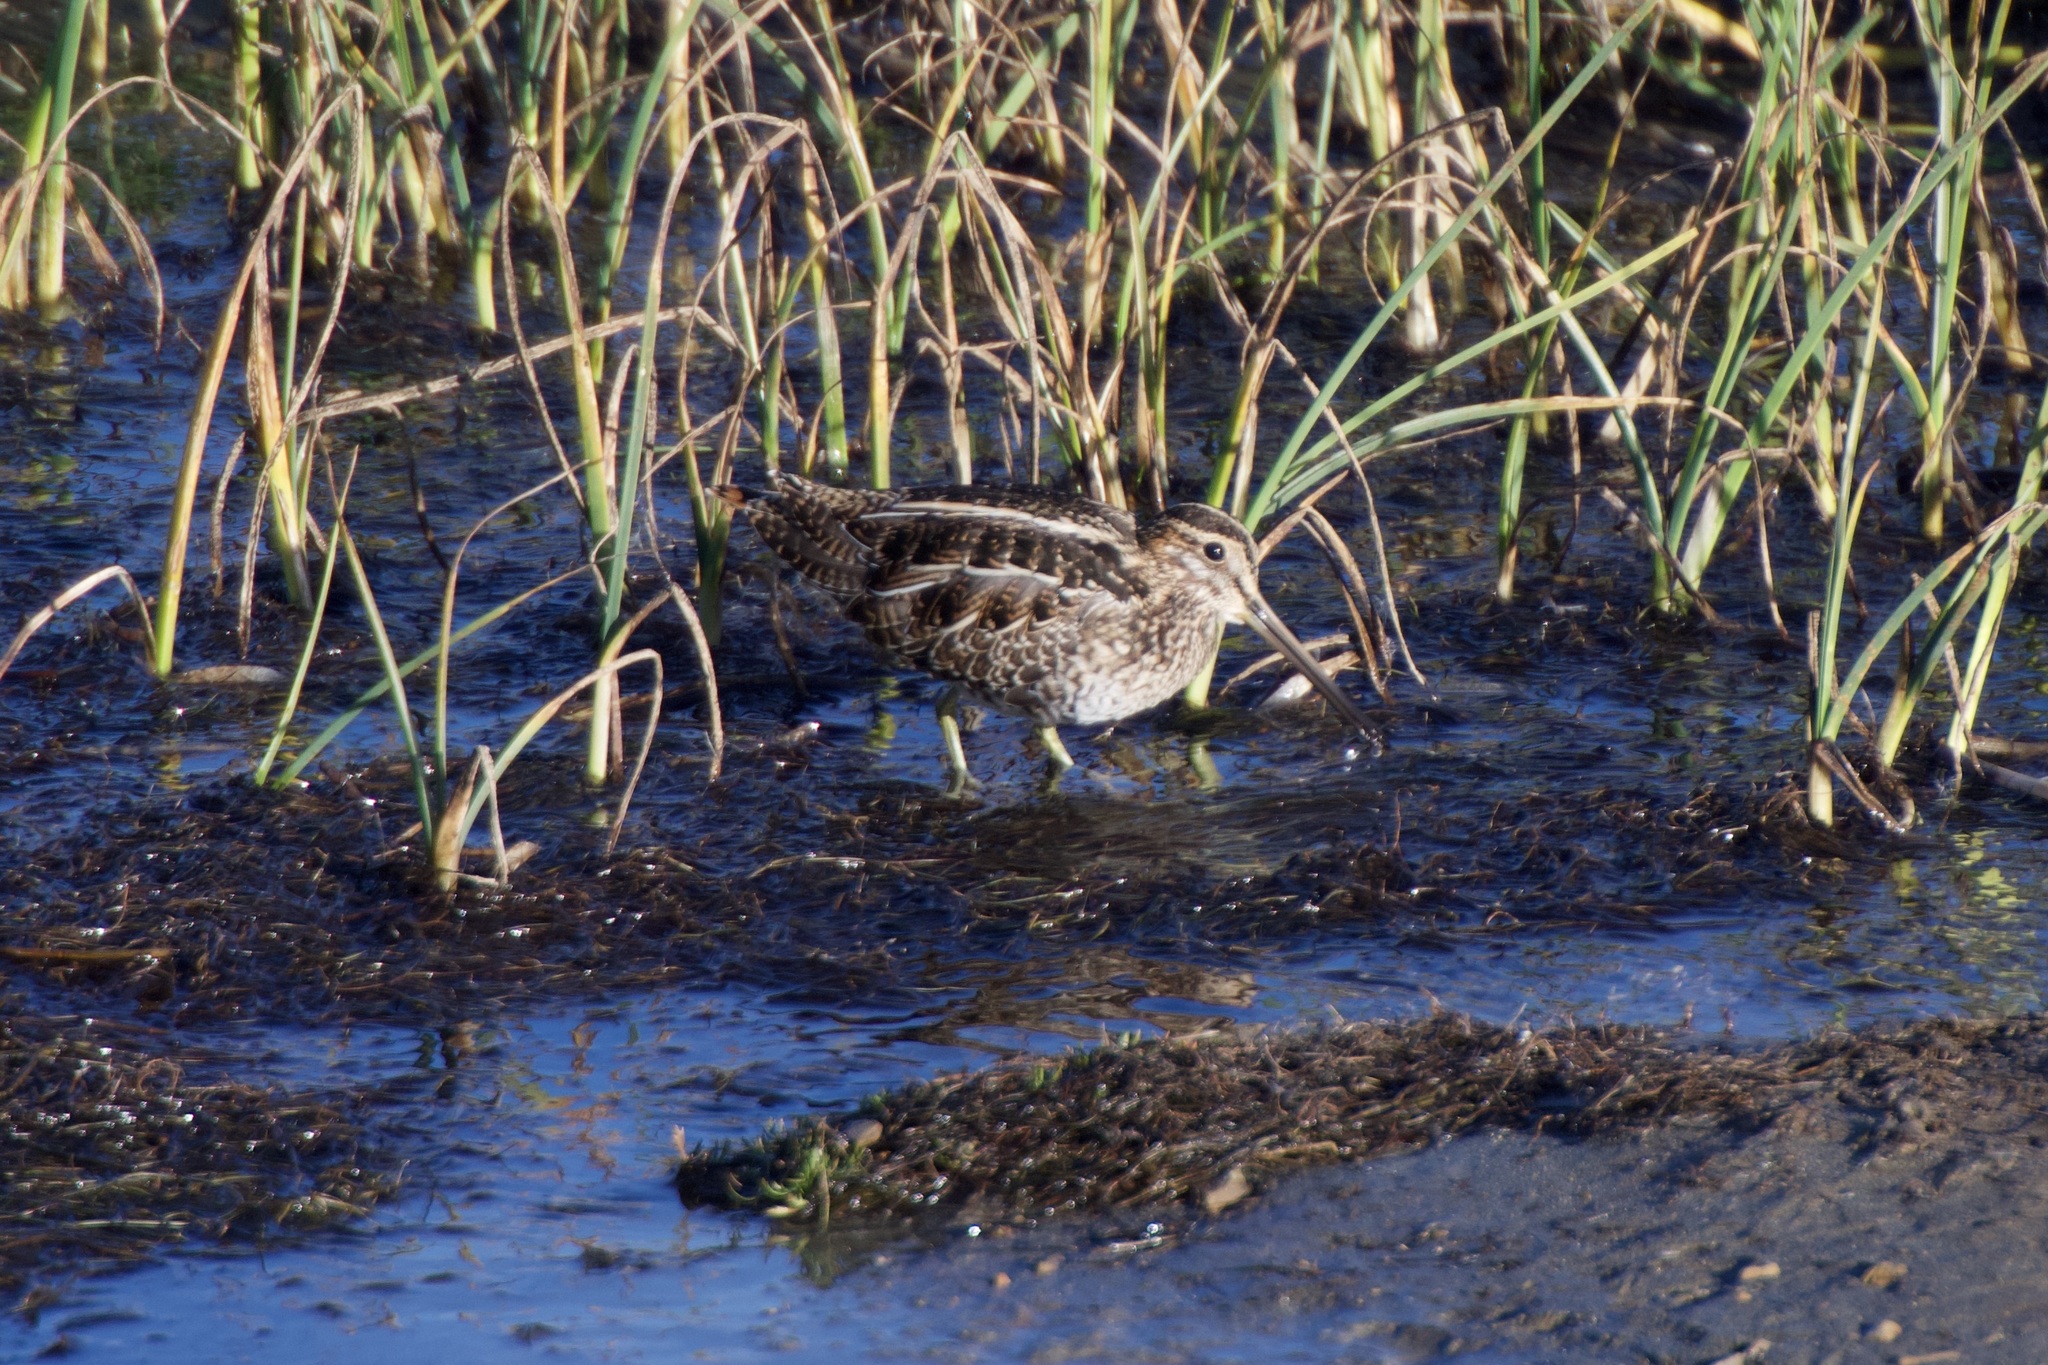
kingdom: Animalia
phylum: Chordata
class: Aves
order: Charadriiformes
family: Scolopacidae
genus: Gallinago
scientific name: Gallinago delicata
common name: Wilson's snipe
